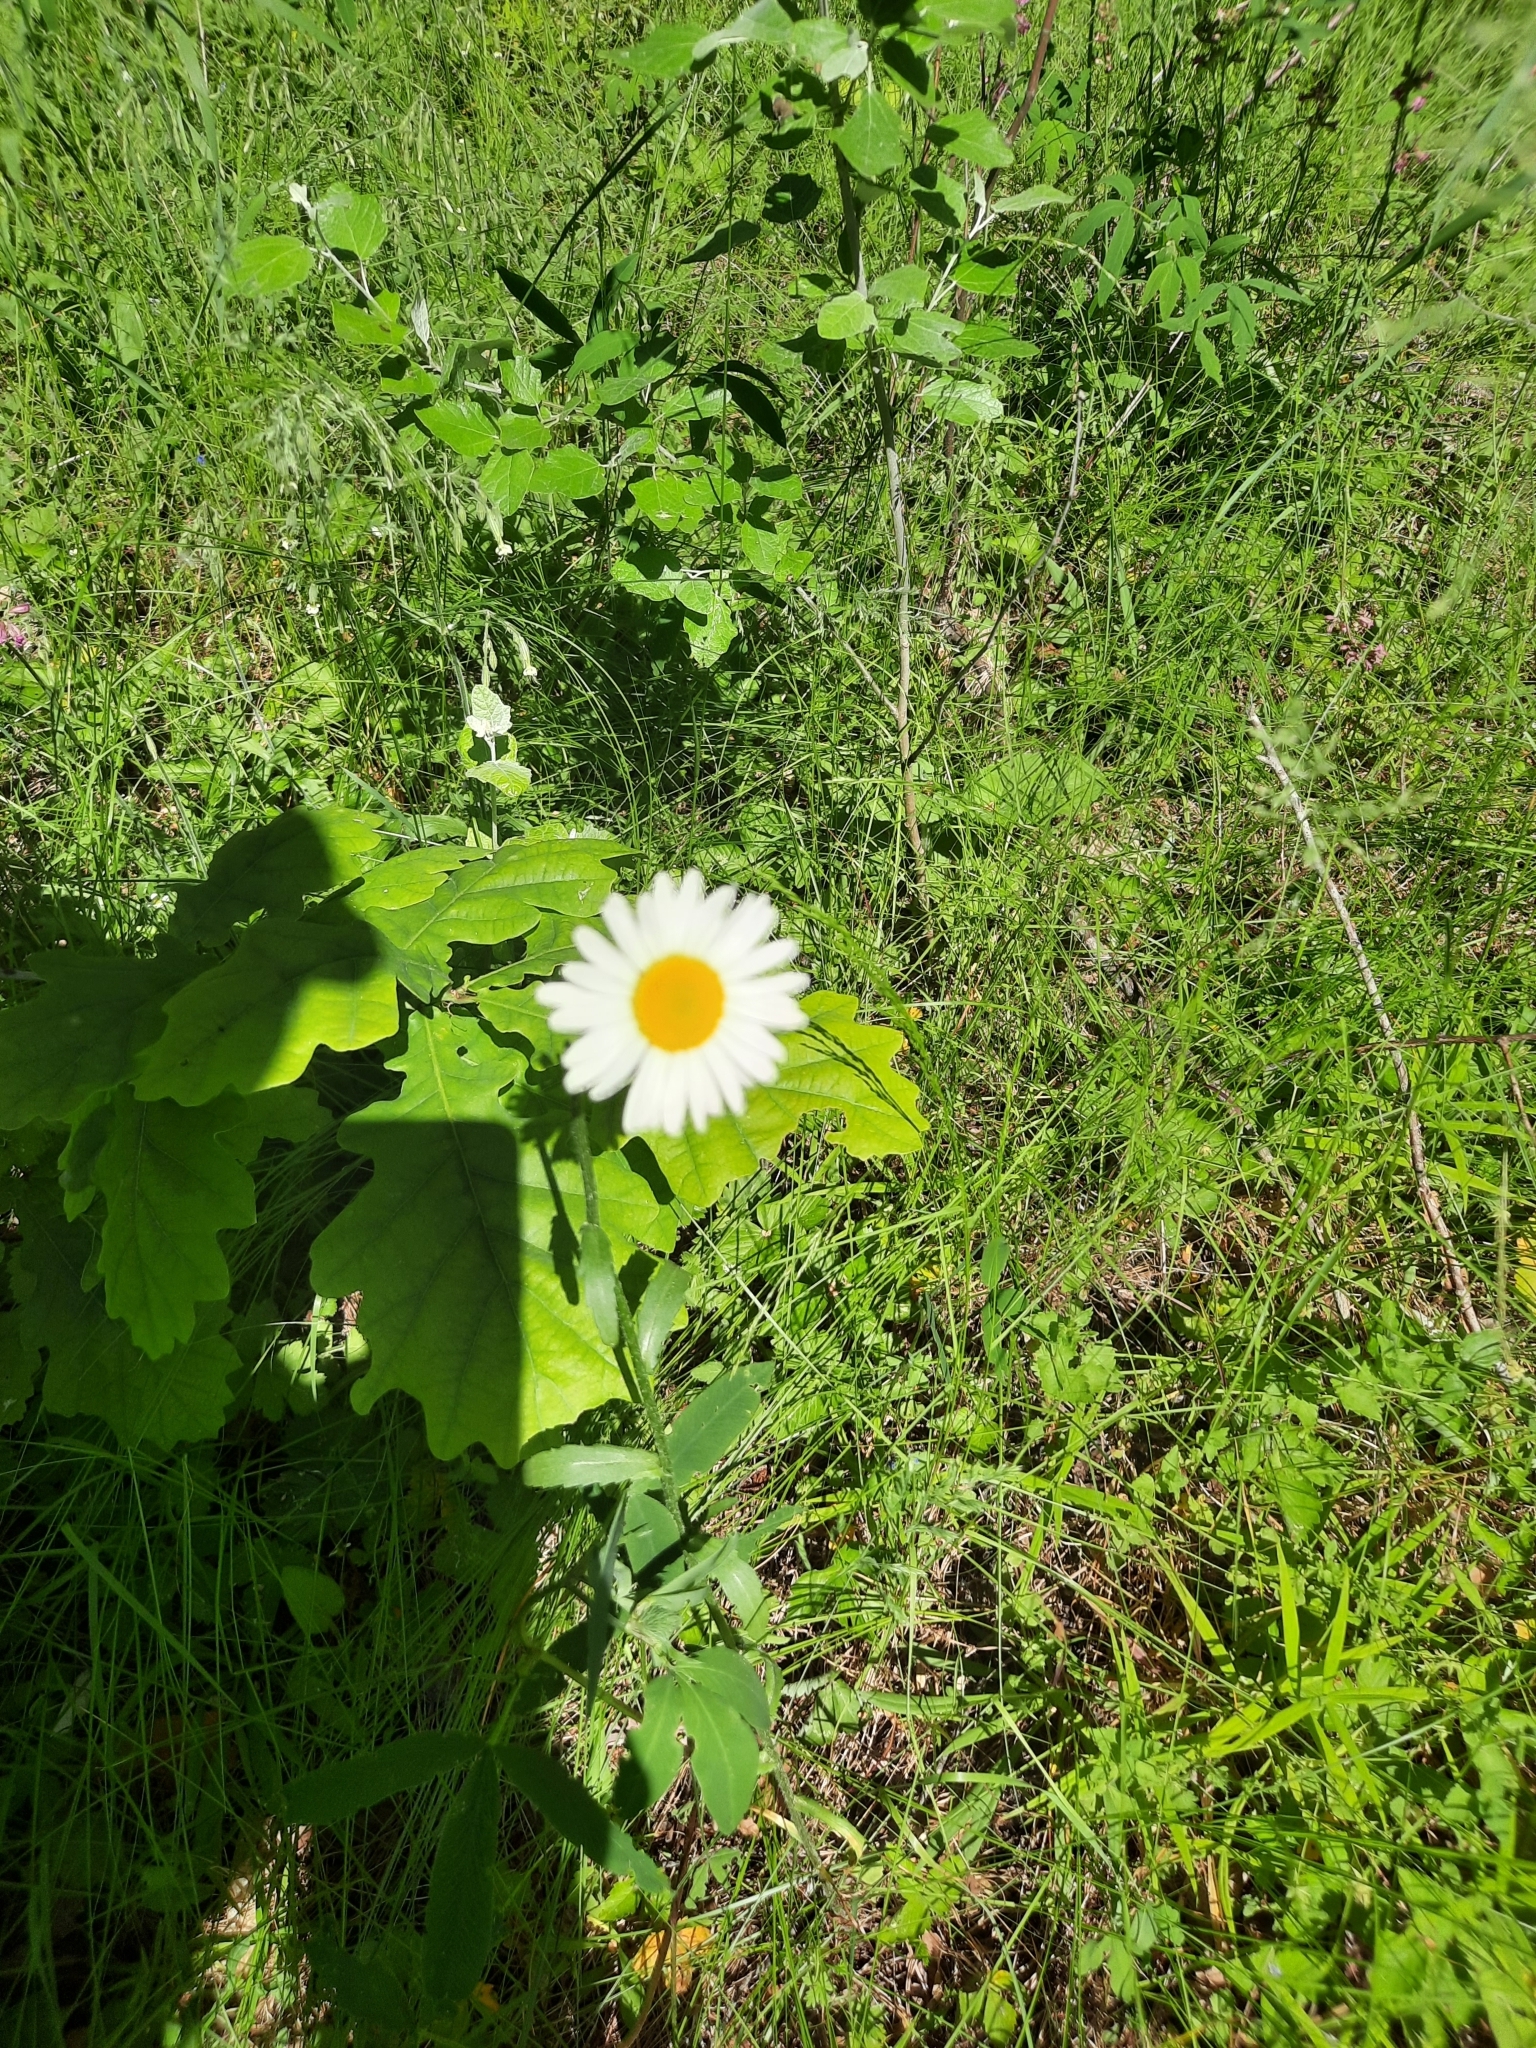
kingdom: Plantae
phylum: Tracheophyta
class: Magnoliopsida
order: Asterales
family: Asteraceae
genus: Leucanthemum
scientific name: Leucanthemum vulgare
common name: Oxeye daisy
